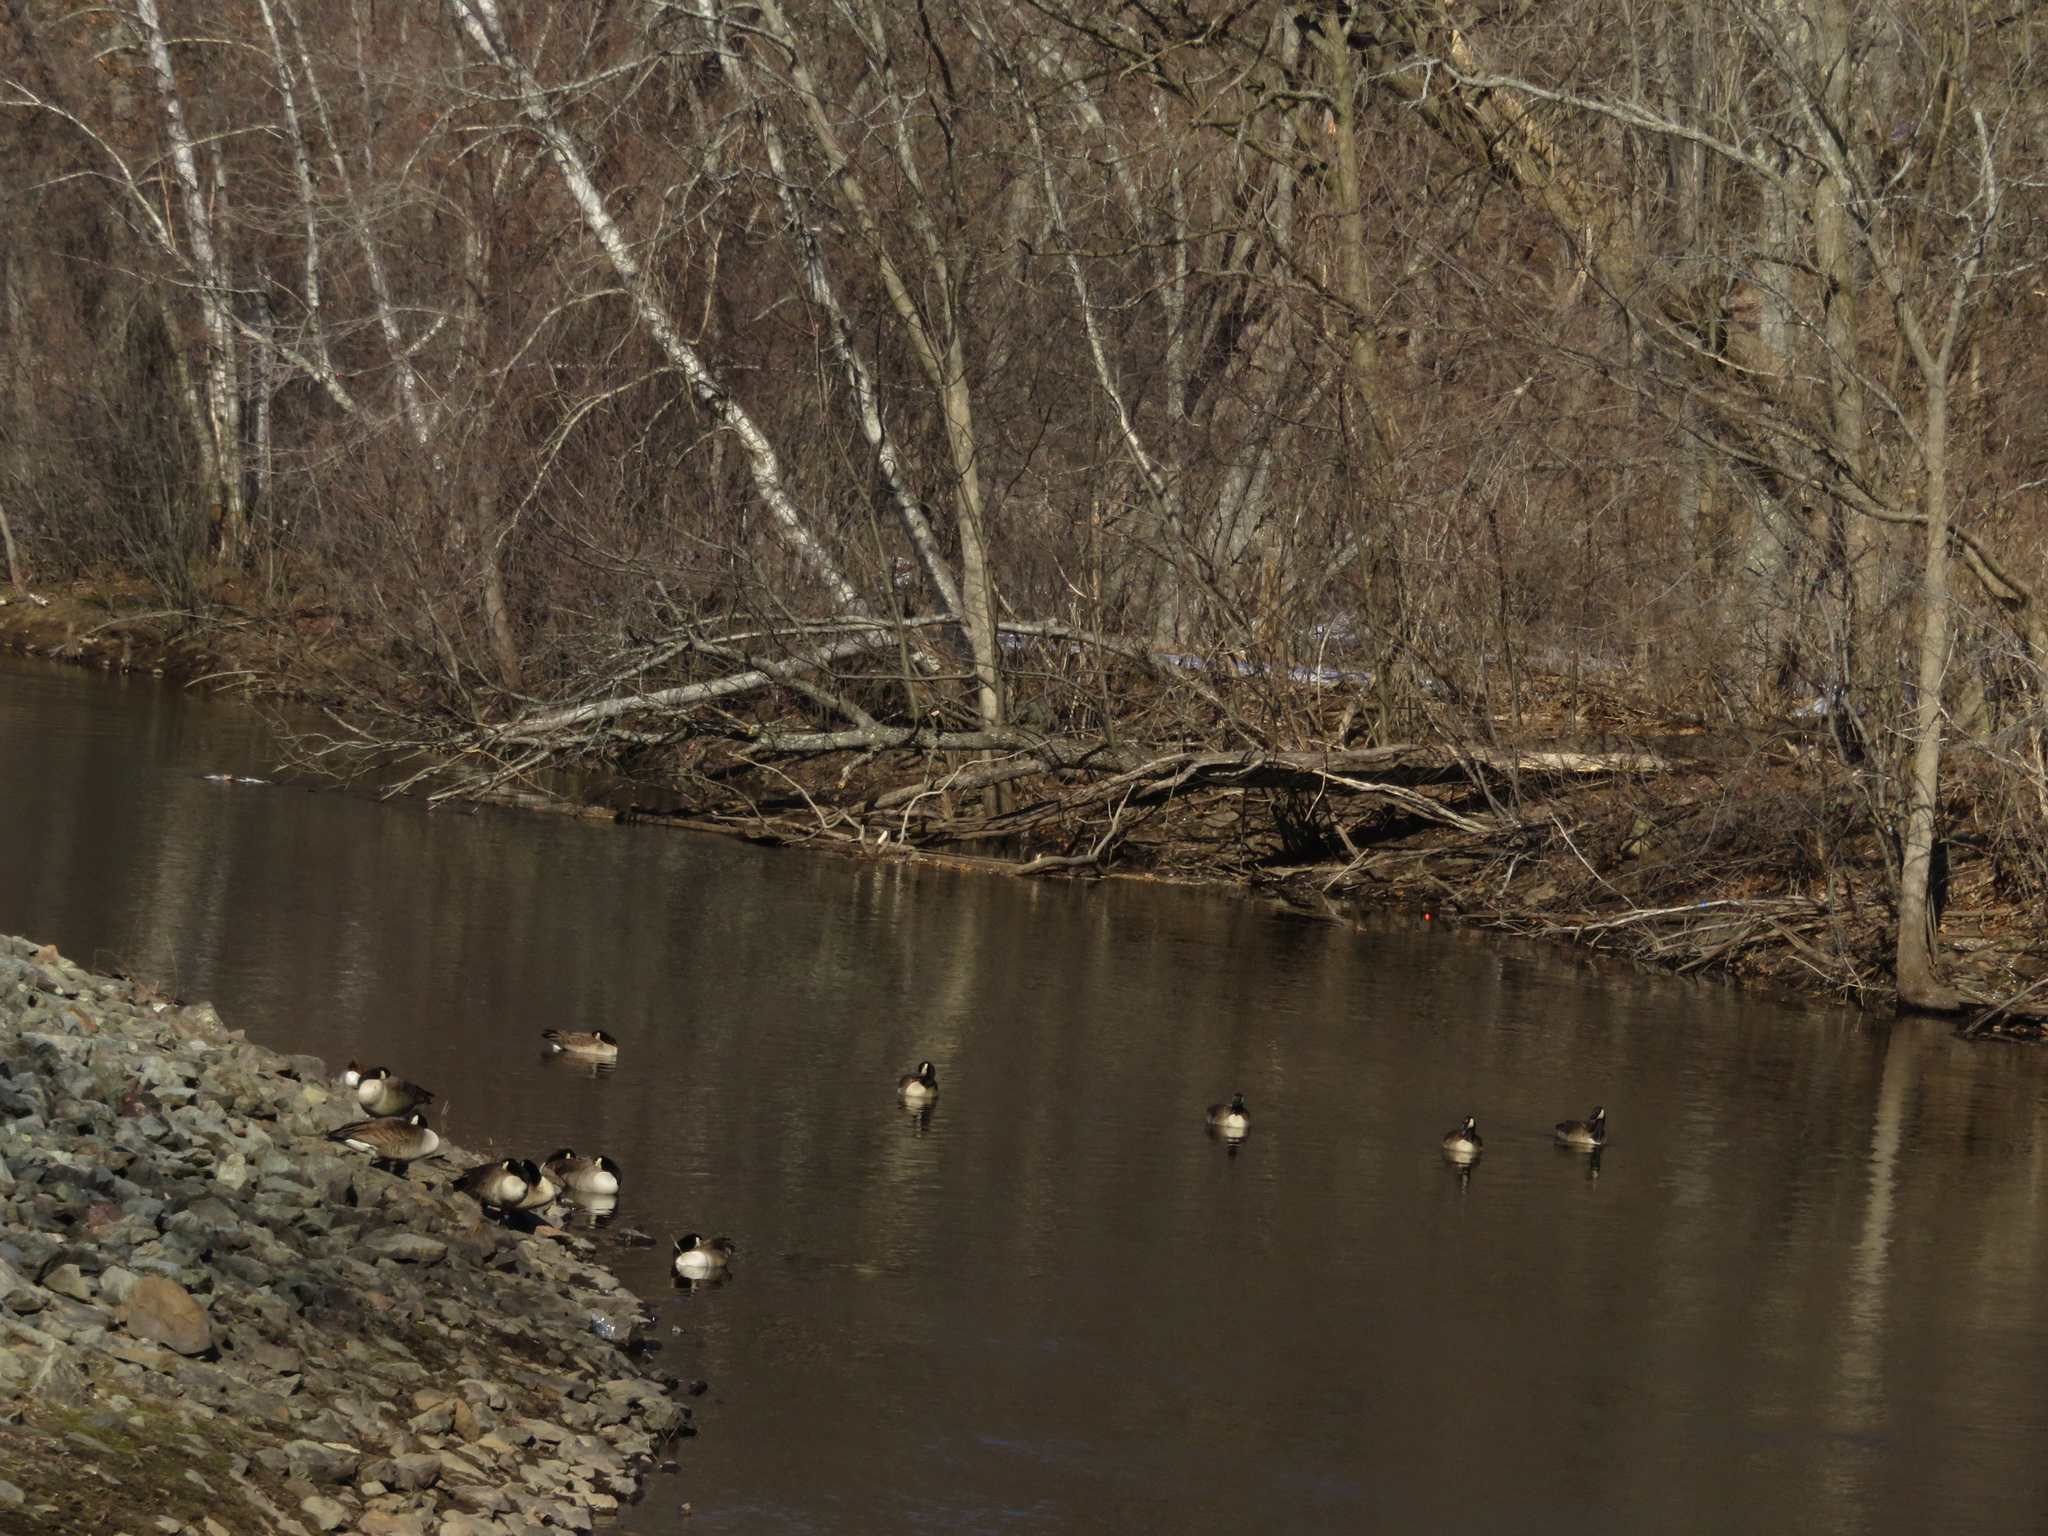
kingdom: Animalia
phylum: Chordata
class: Aves
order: Anseriformes
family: Anatidae
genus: Branta
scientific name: Branta canadensis
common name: Canada goose
